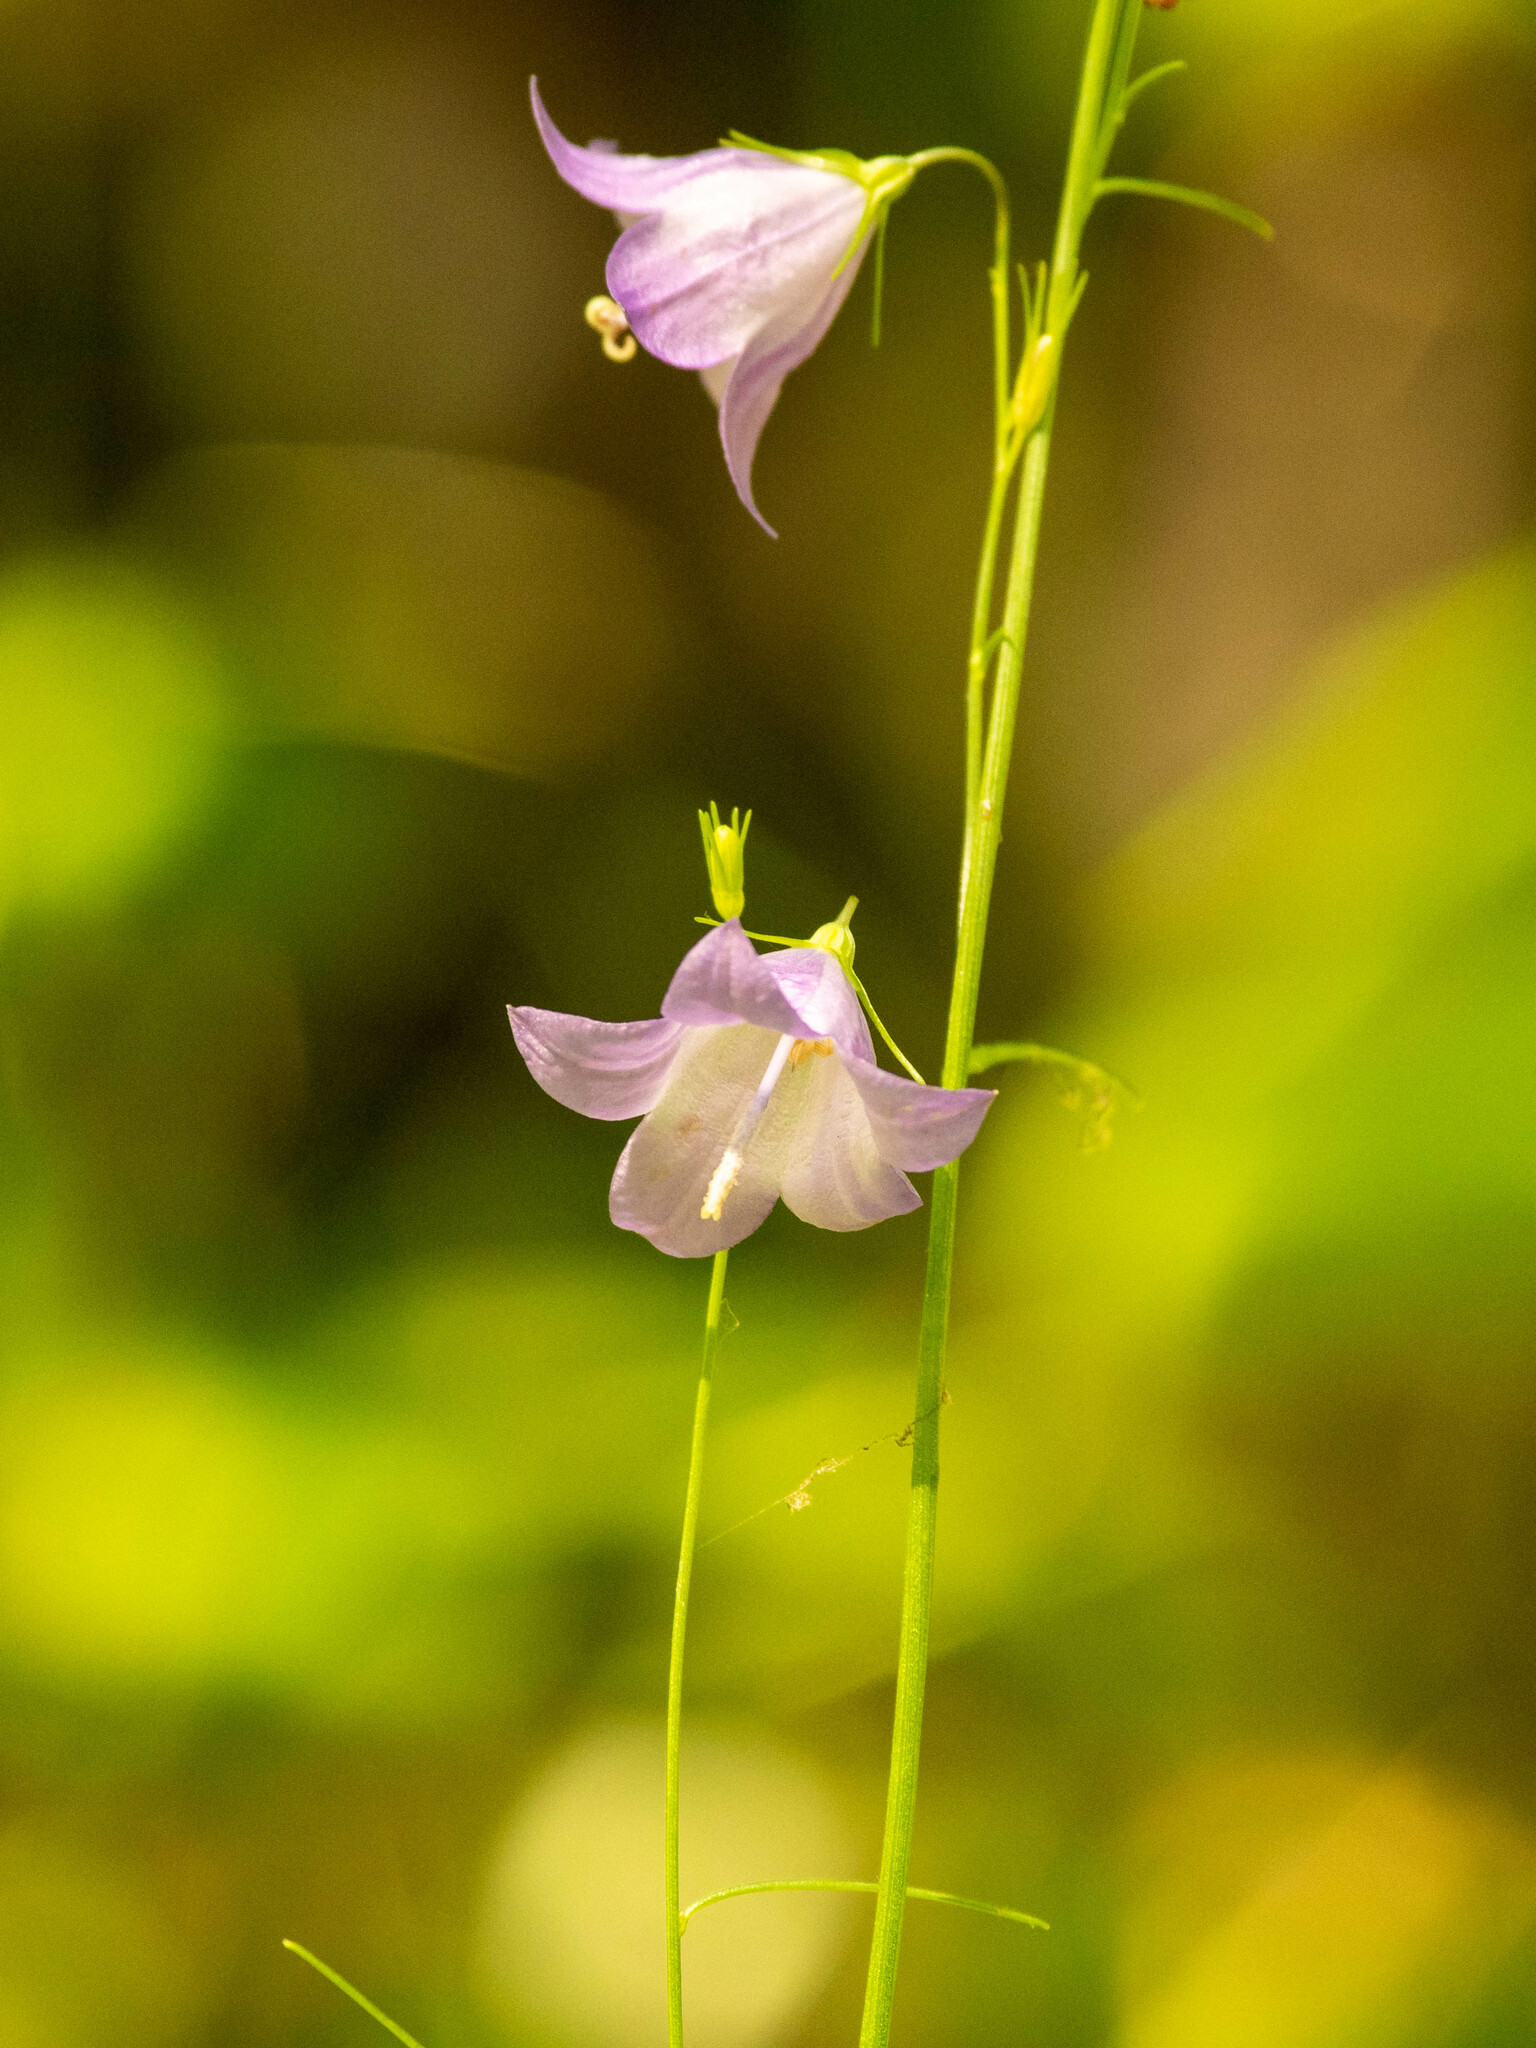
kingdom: Plantae
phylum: Tracheophyta
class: Magnoliopsida
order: Asterales
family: Campanulaceae
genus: Campanula
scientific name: Campanula alaskana
